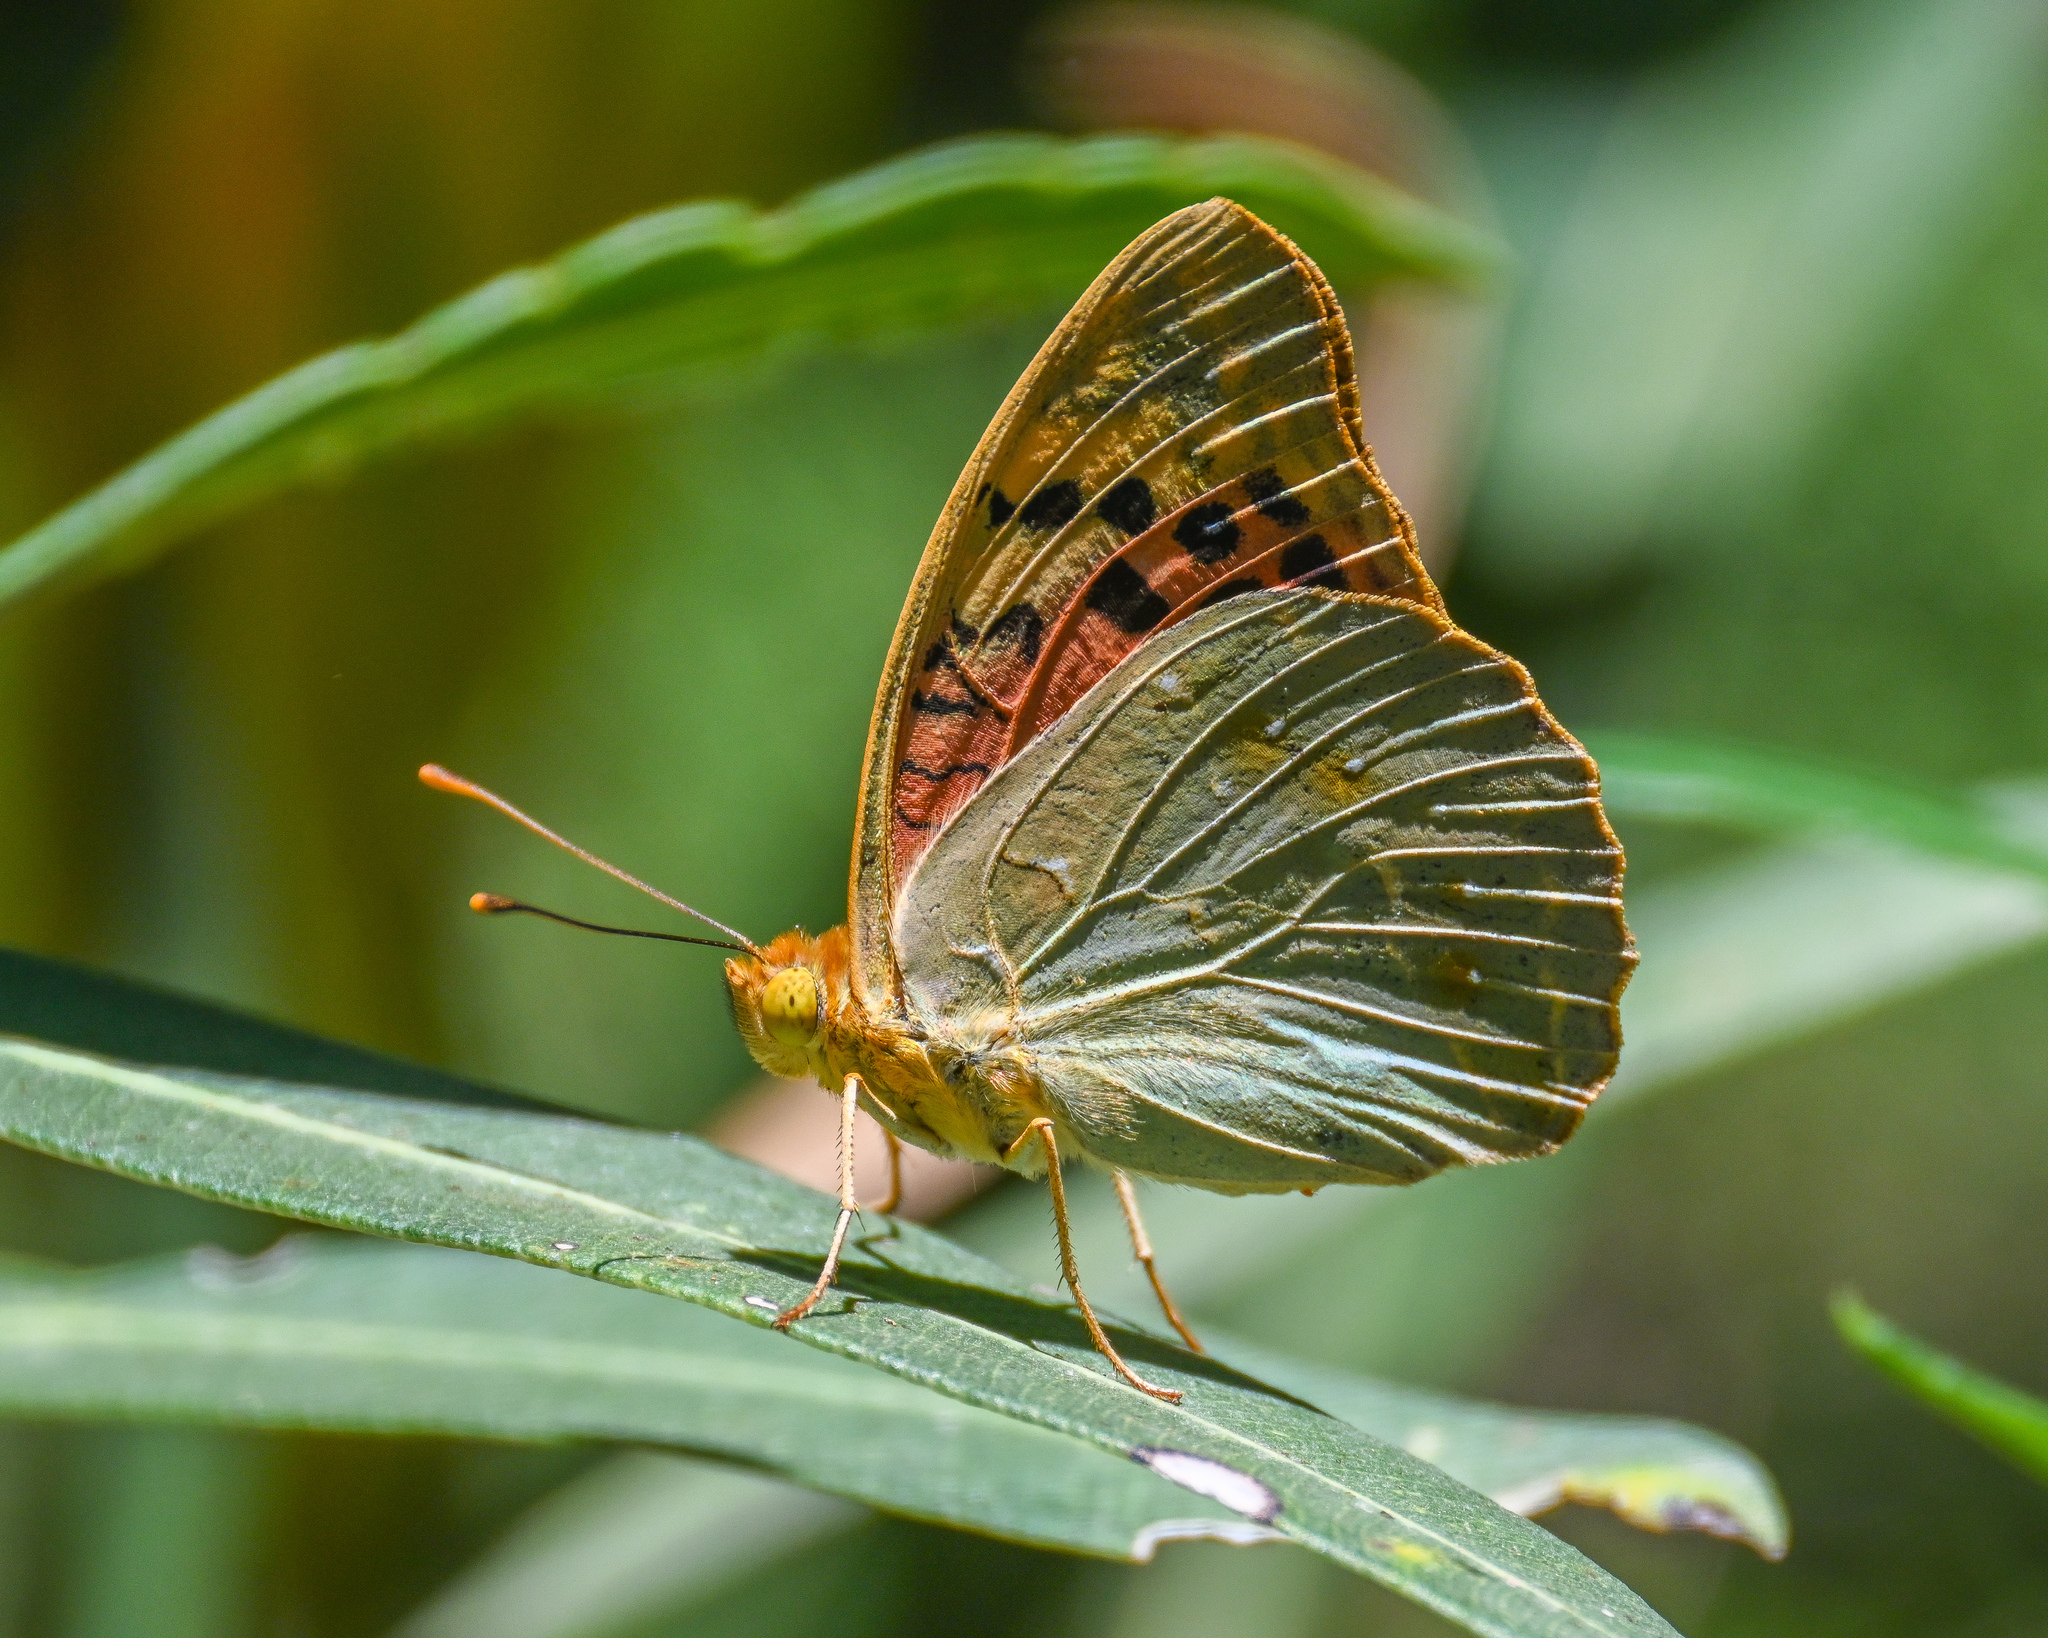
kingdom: Animalia
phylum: Arthropoda
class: Insecta
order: Lepidoptera
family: Nymphalidae
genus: Damora
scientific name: Damora pandora
